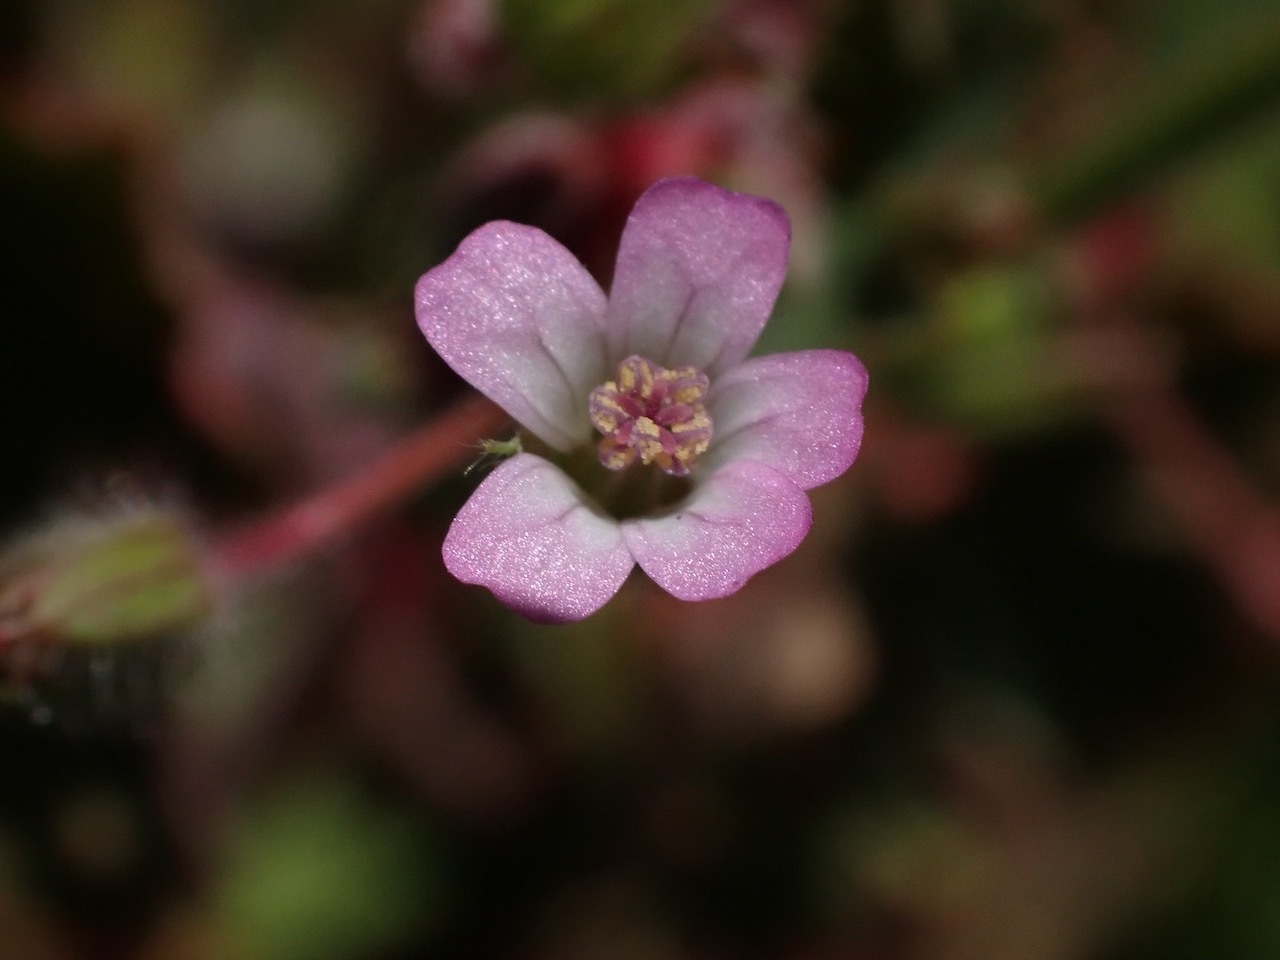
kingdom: Plantae
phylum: Tracheophyta
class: Magnoliopsida
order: Geraniales
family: Geraniaceae
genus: Geranium
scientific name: Geranium rotundifolium
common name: Round-leaved crane's-bill
